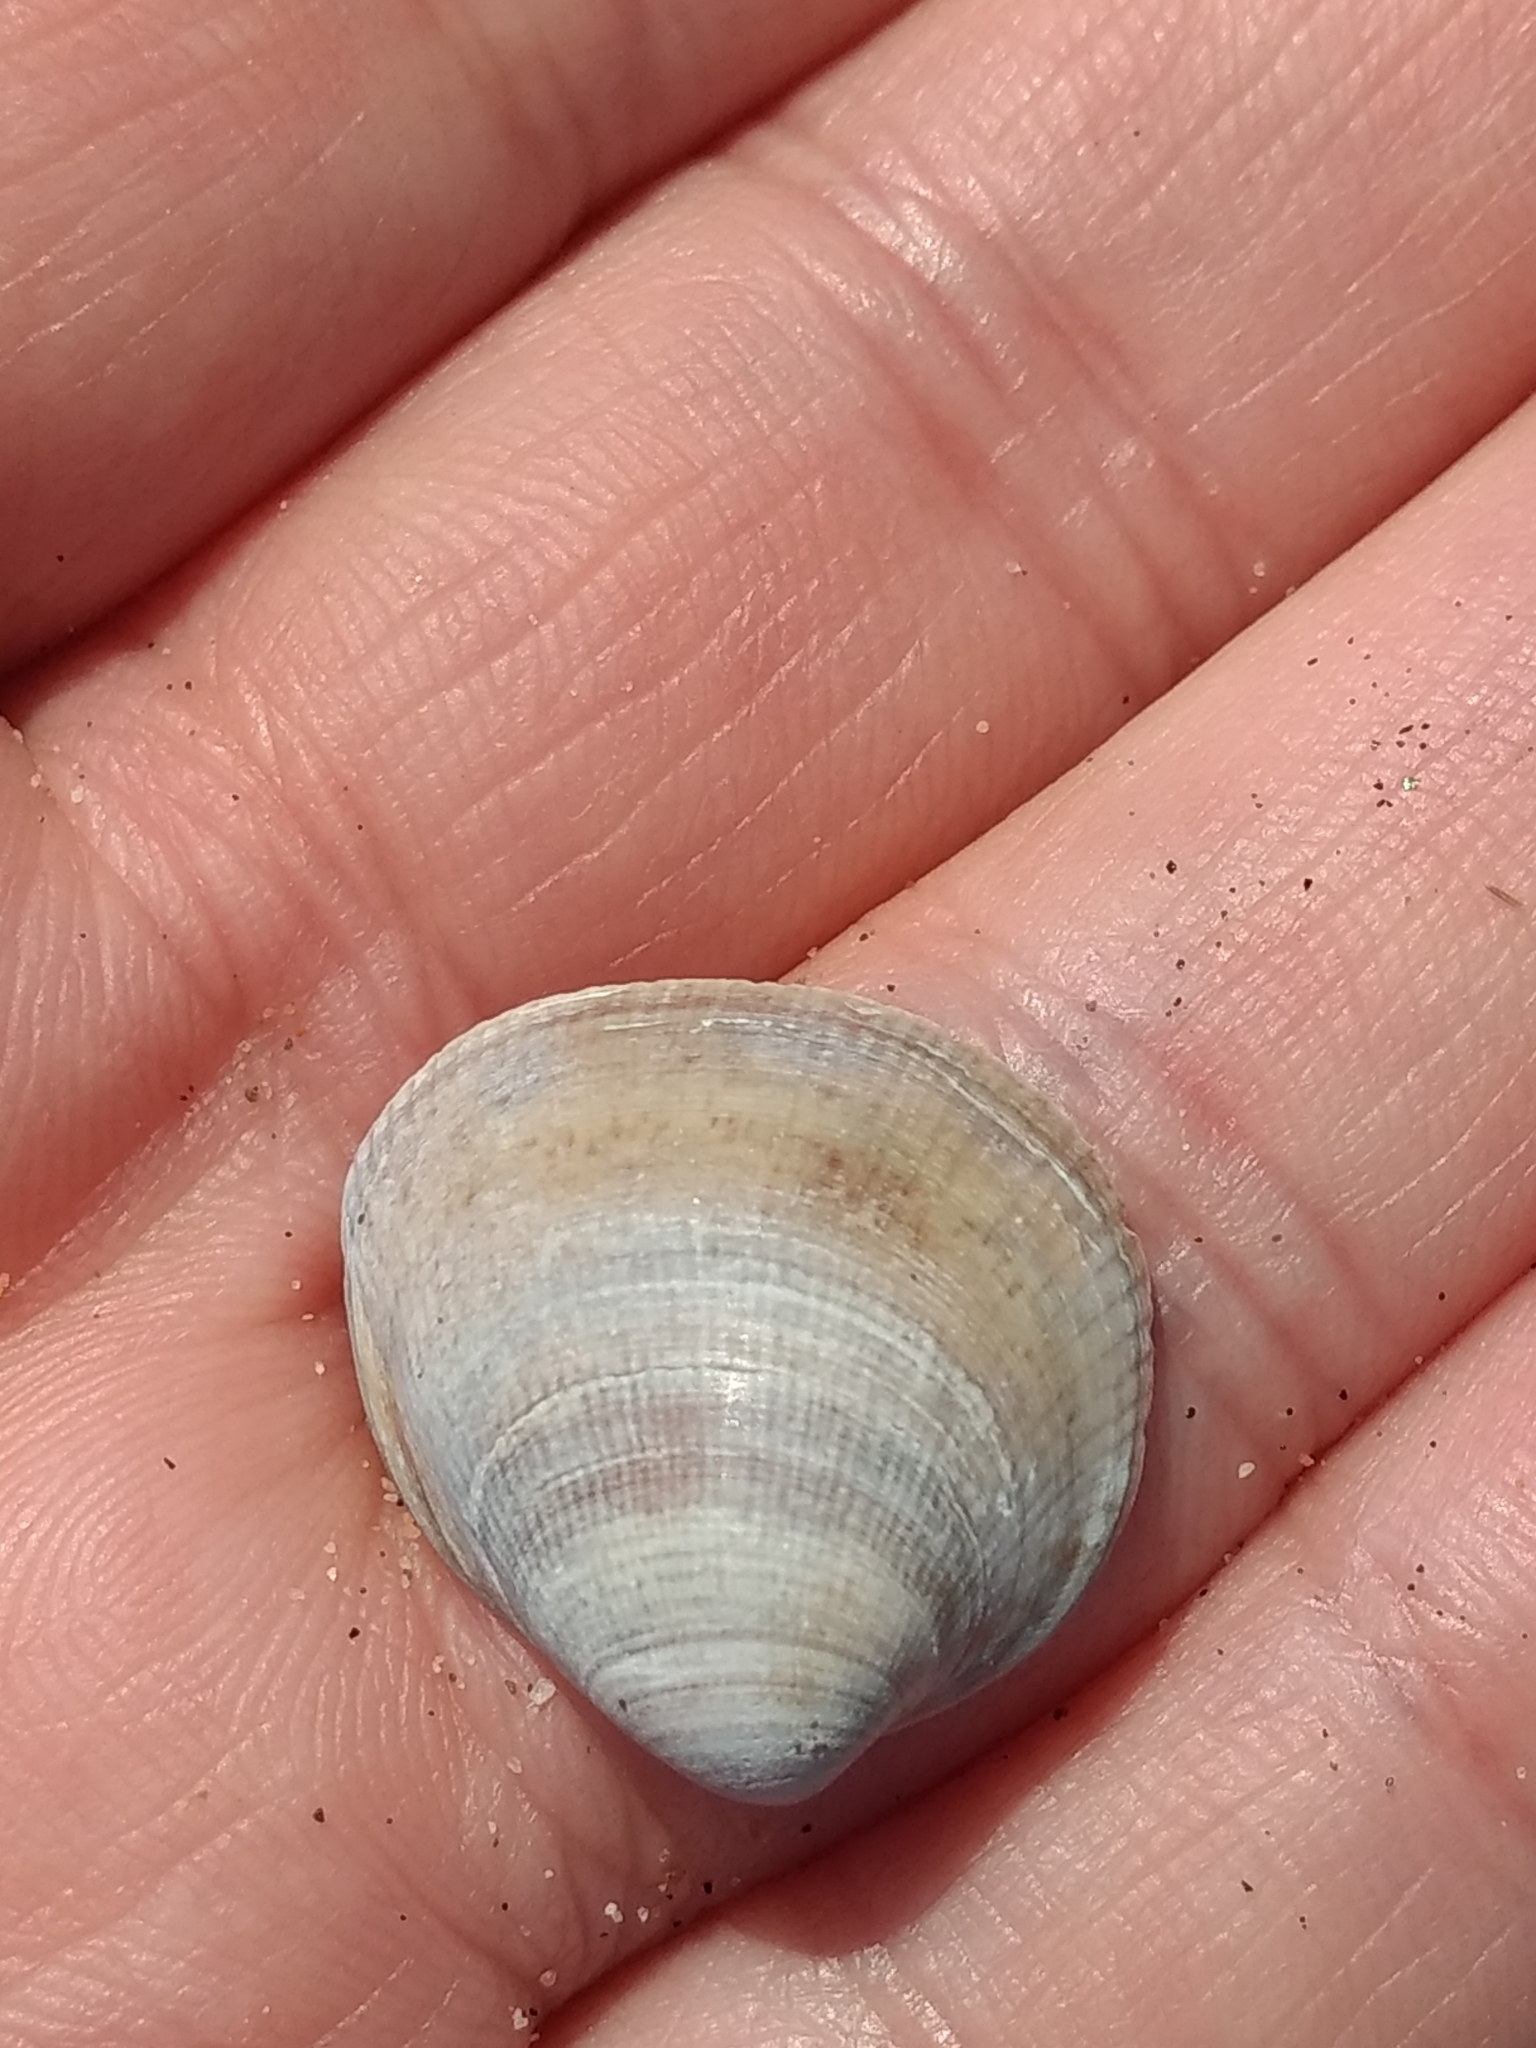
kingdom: Animalia
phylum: Mollusca
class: Bivalvia
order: Cardiida
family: Cardiidae
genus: Laevicardium
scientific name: Laevicardium substriatum
